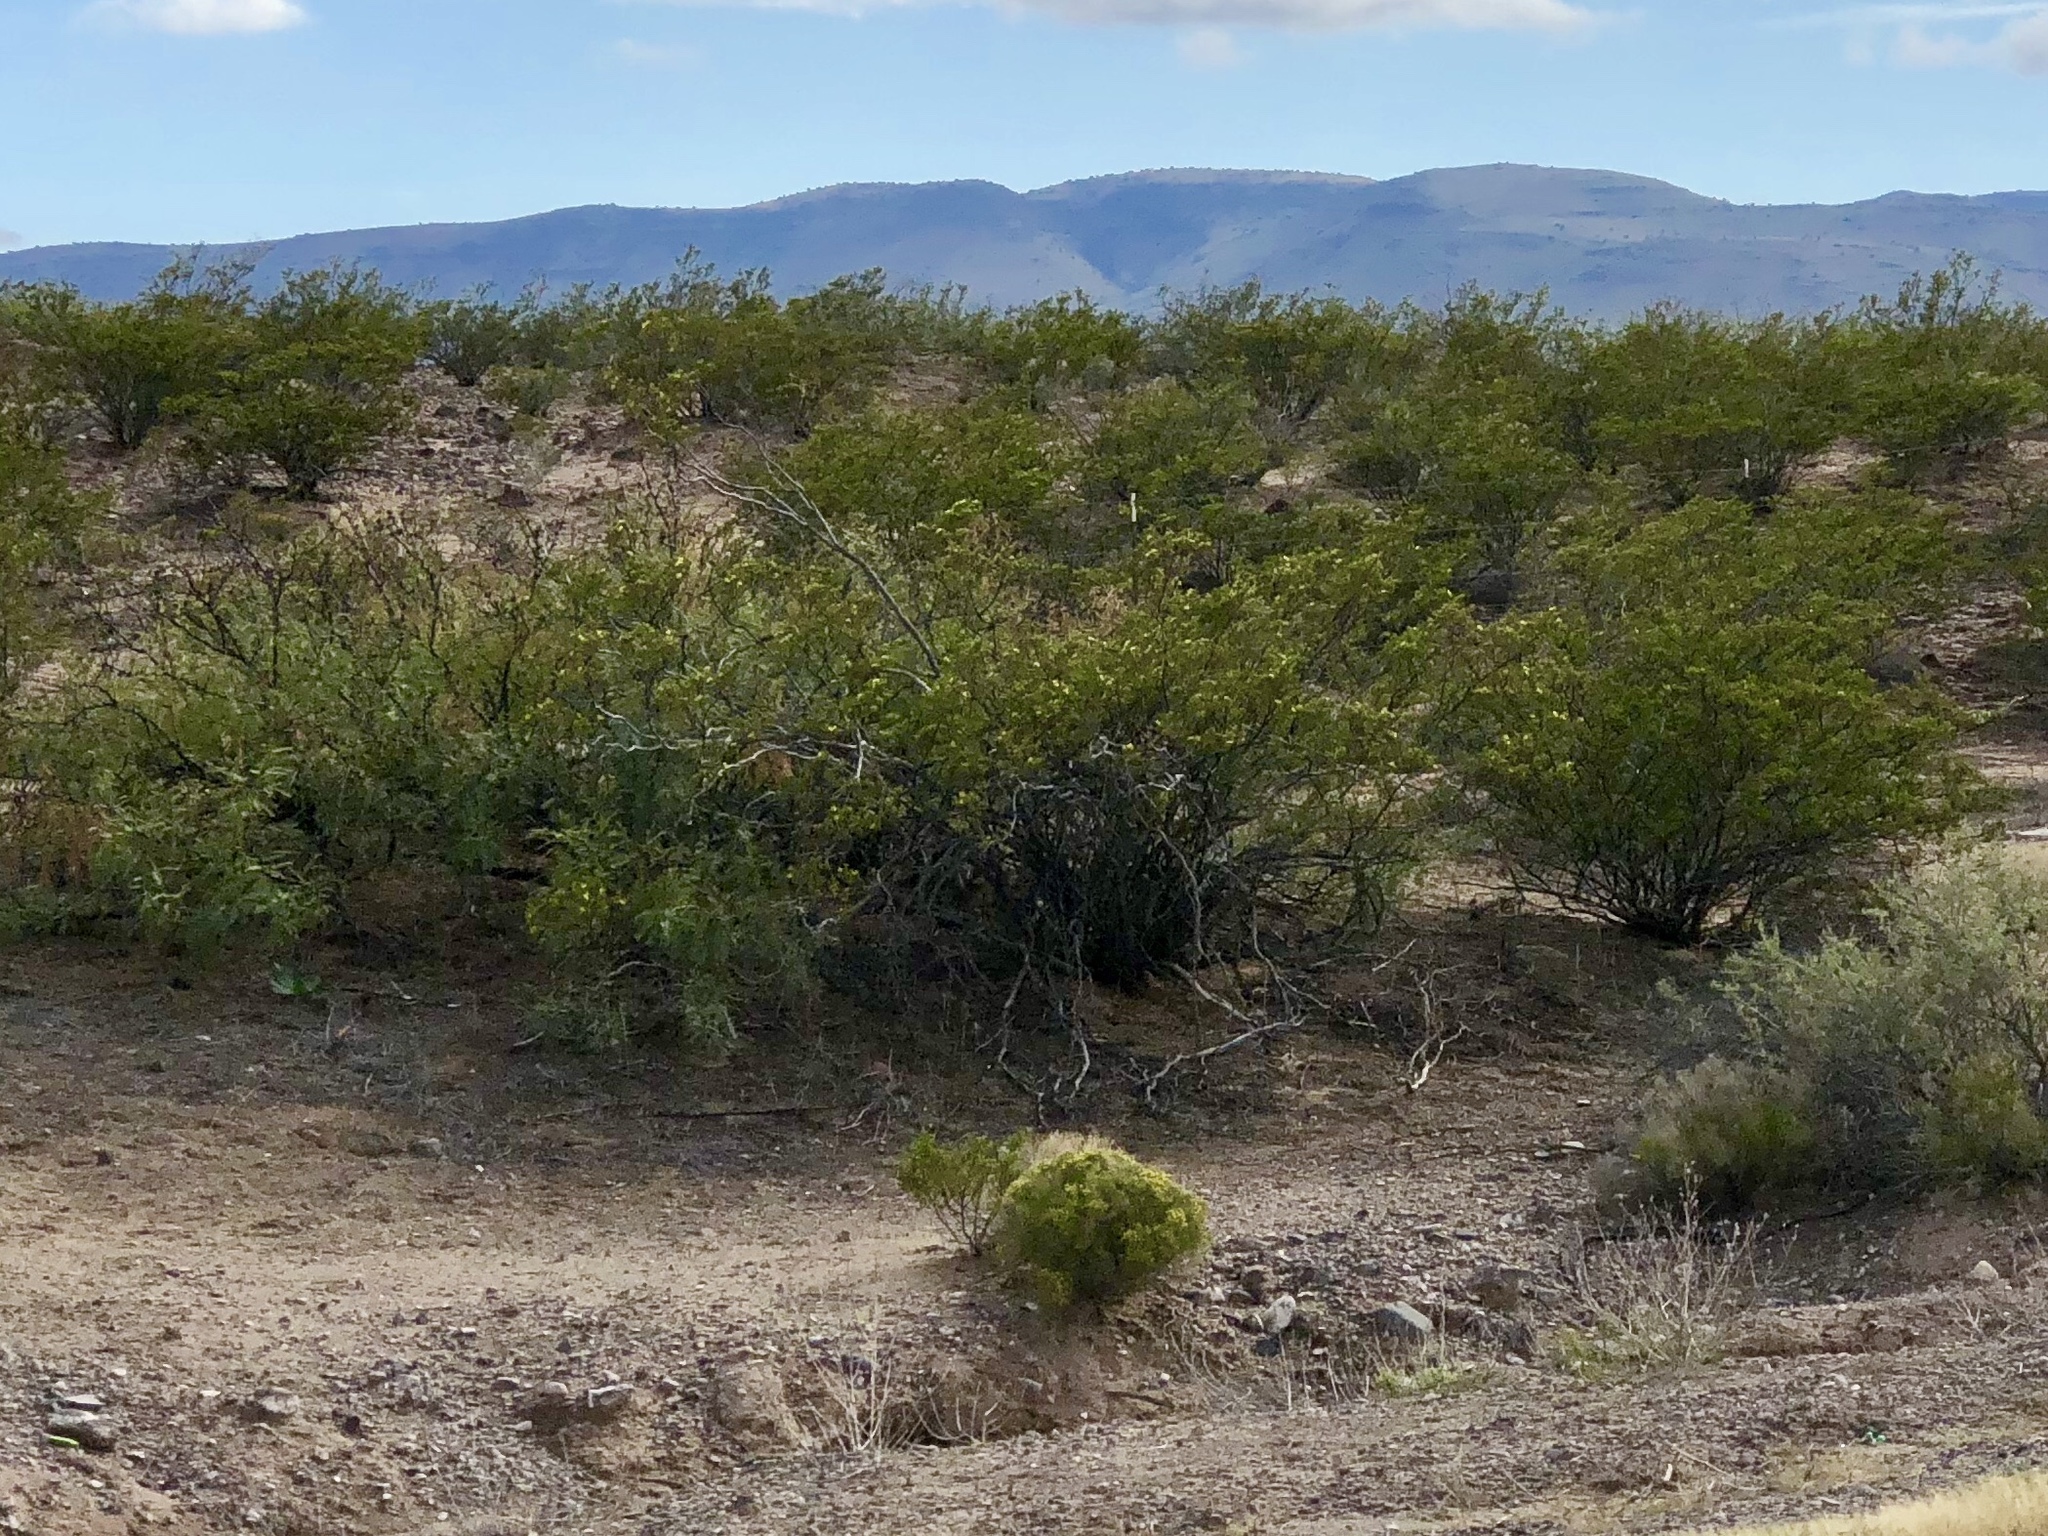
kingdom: Plantae
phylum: Tracheophyta
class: Magnoliopsida
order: Zygophyllales
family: Zygophyllaceae
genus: Larrea
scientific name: Larrea tridentata
